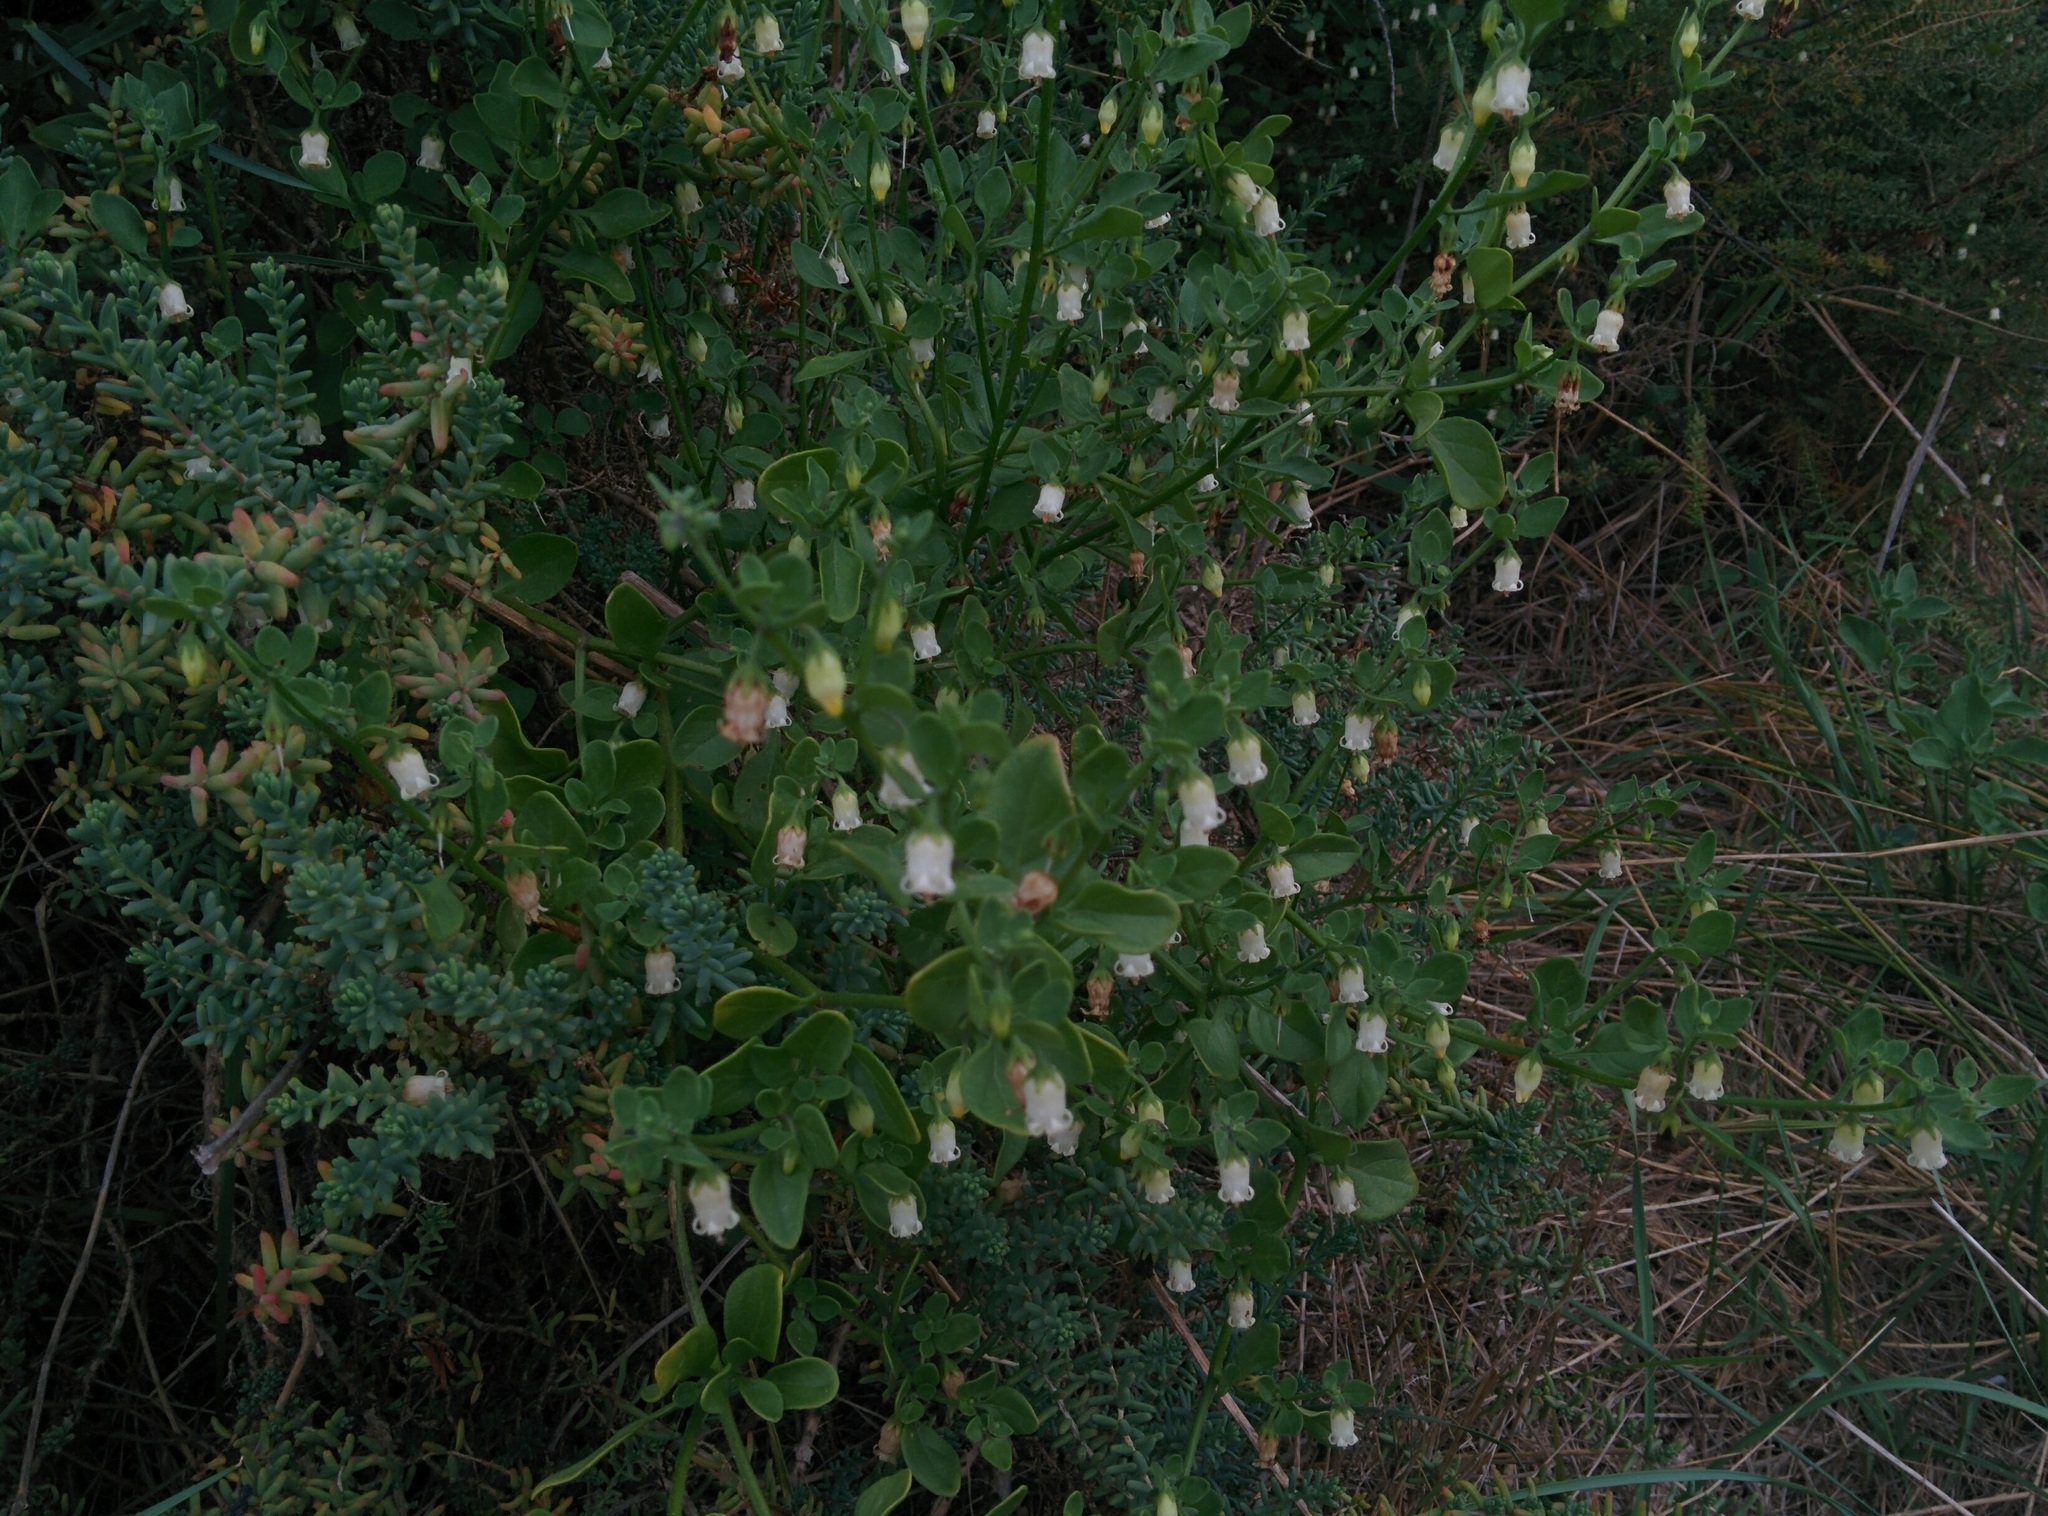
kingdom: Plantae
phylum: Tracheophyta
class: Magnoliopsida
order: Solanales
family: Solanaceae
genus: Salpichroa
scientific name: Salpichroa origanifolia
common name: Lily-of-the-valley-vine
